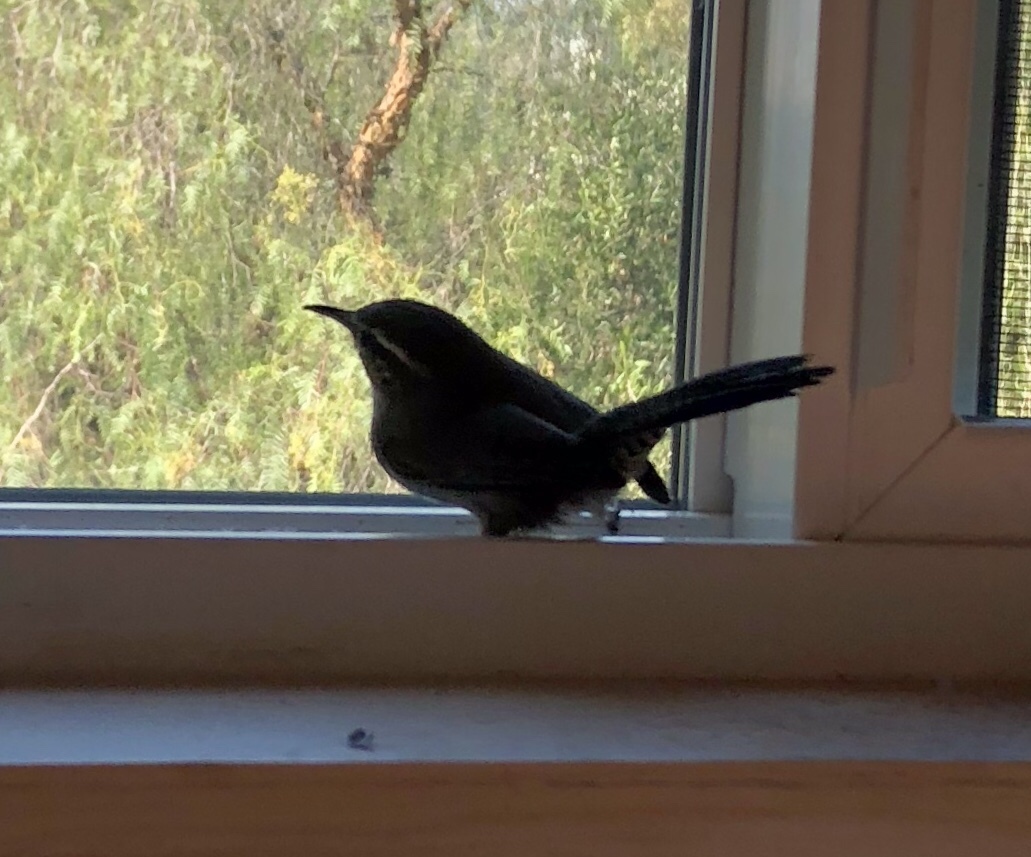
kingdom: Animalia
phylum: Chordata
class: Aves
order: Passeriformes
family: Troglodytidae
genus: Thryomanes
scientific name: Thryomanes bewickii
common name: Bewick's wren
